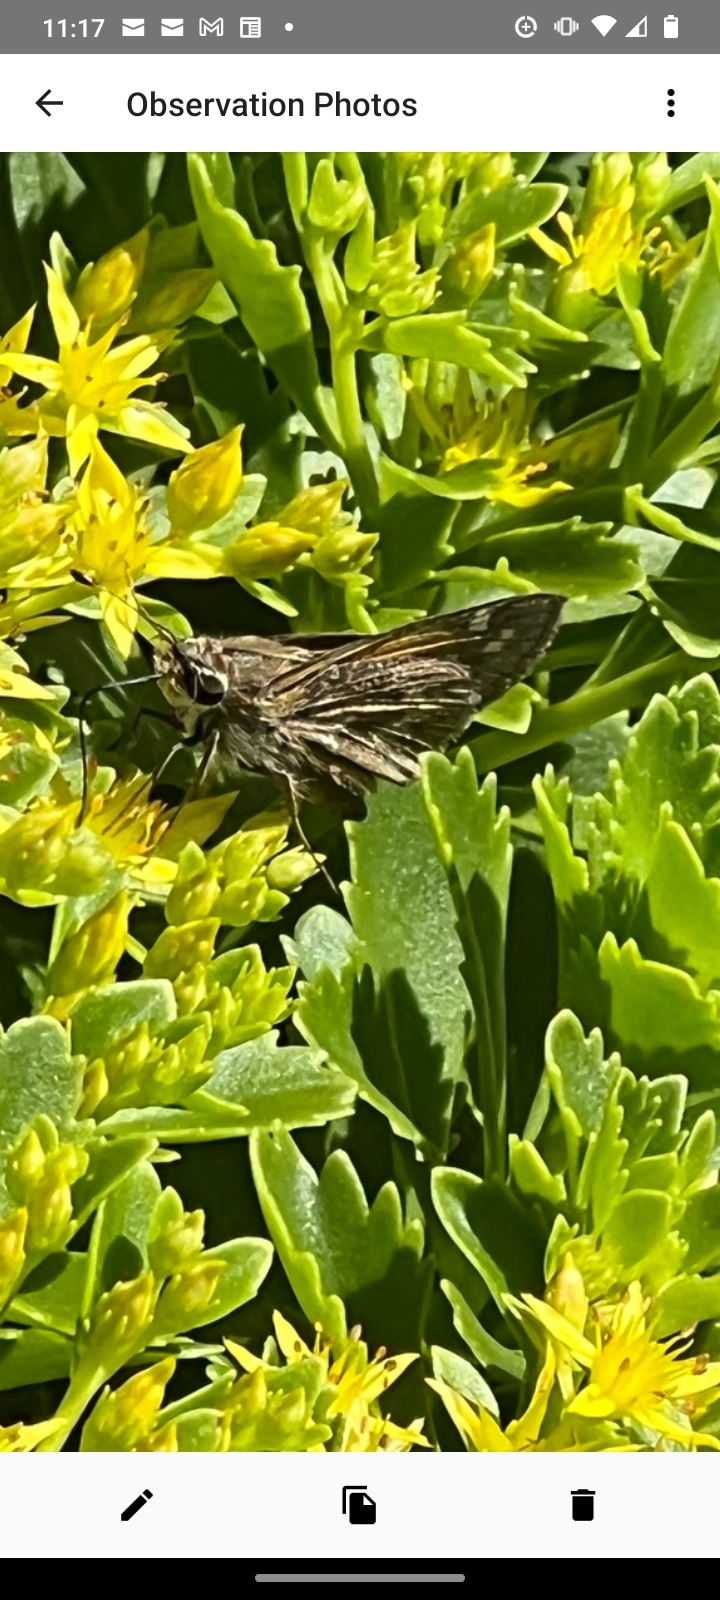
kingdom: Animalia
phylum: Arthropoda
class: Insecta
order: Lepidoptera
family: Hesperiidae
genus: Atalopedes
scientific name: Atalopedes
